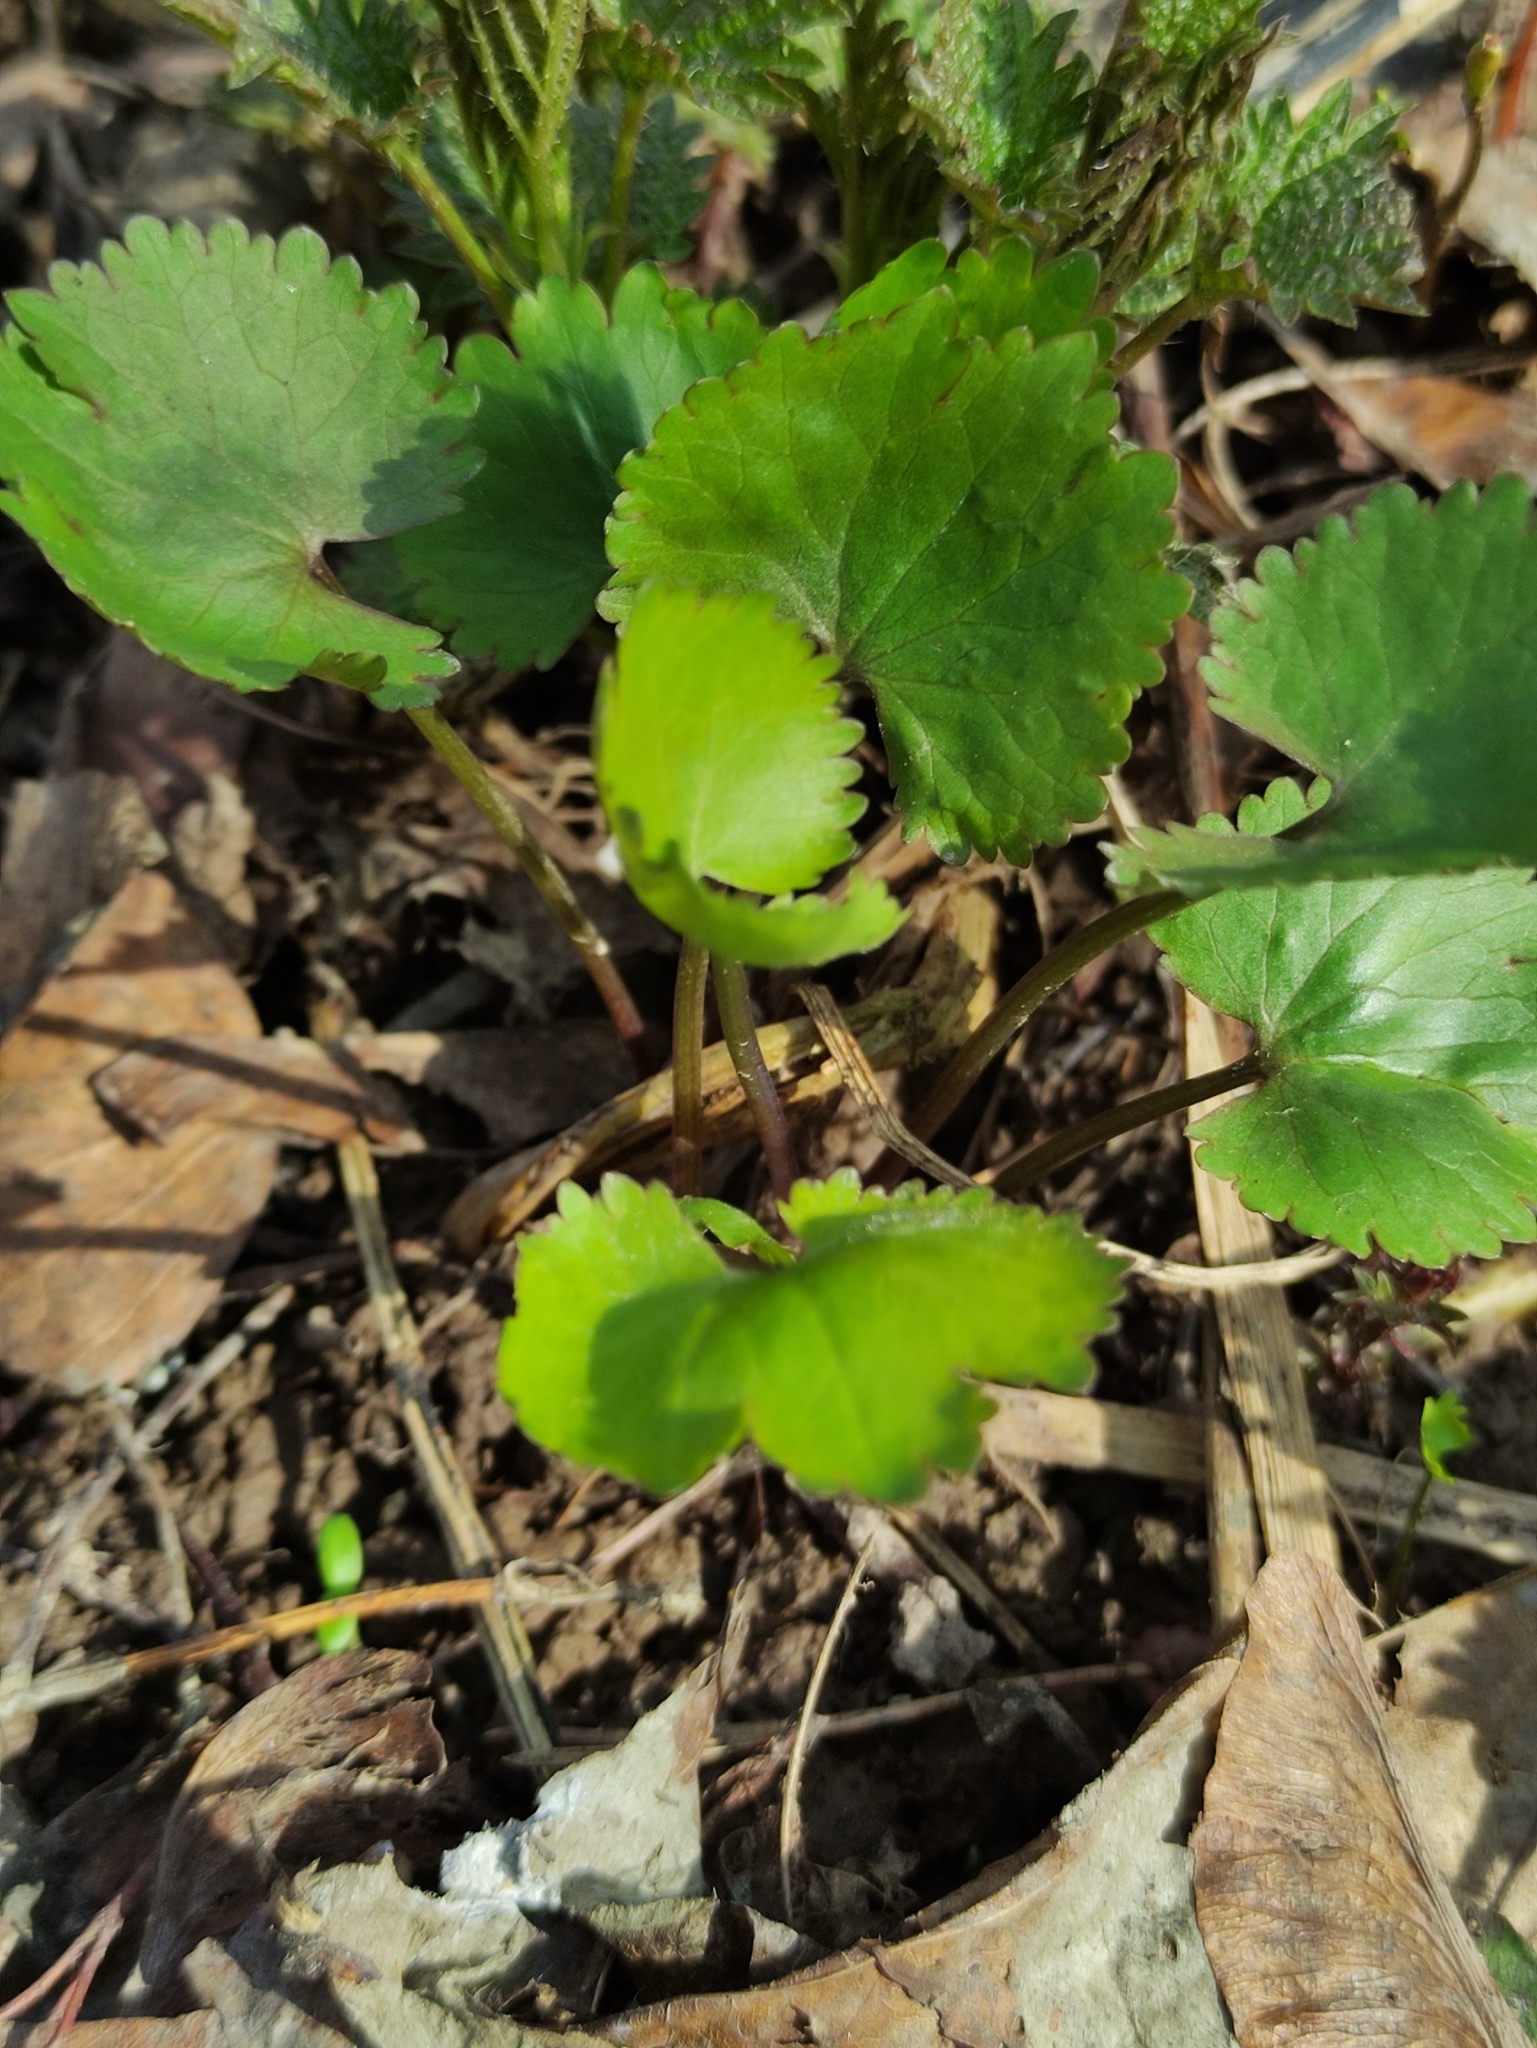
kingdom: Plantae
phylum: Tracheophyta
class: Magnoliopsida
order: Ranunculales
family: Ranunculaceae
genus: Ranunculus
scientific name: Ranunculus cassubicus
